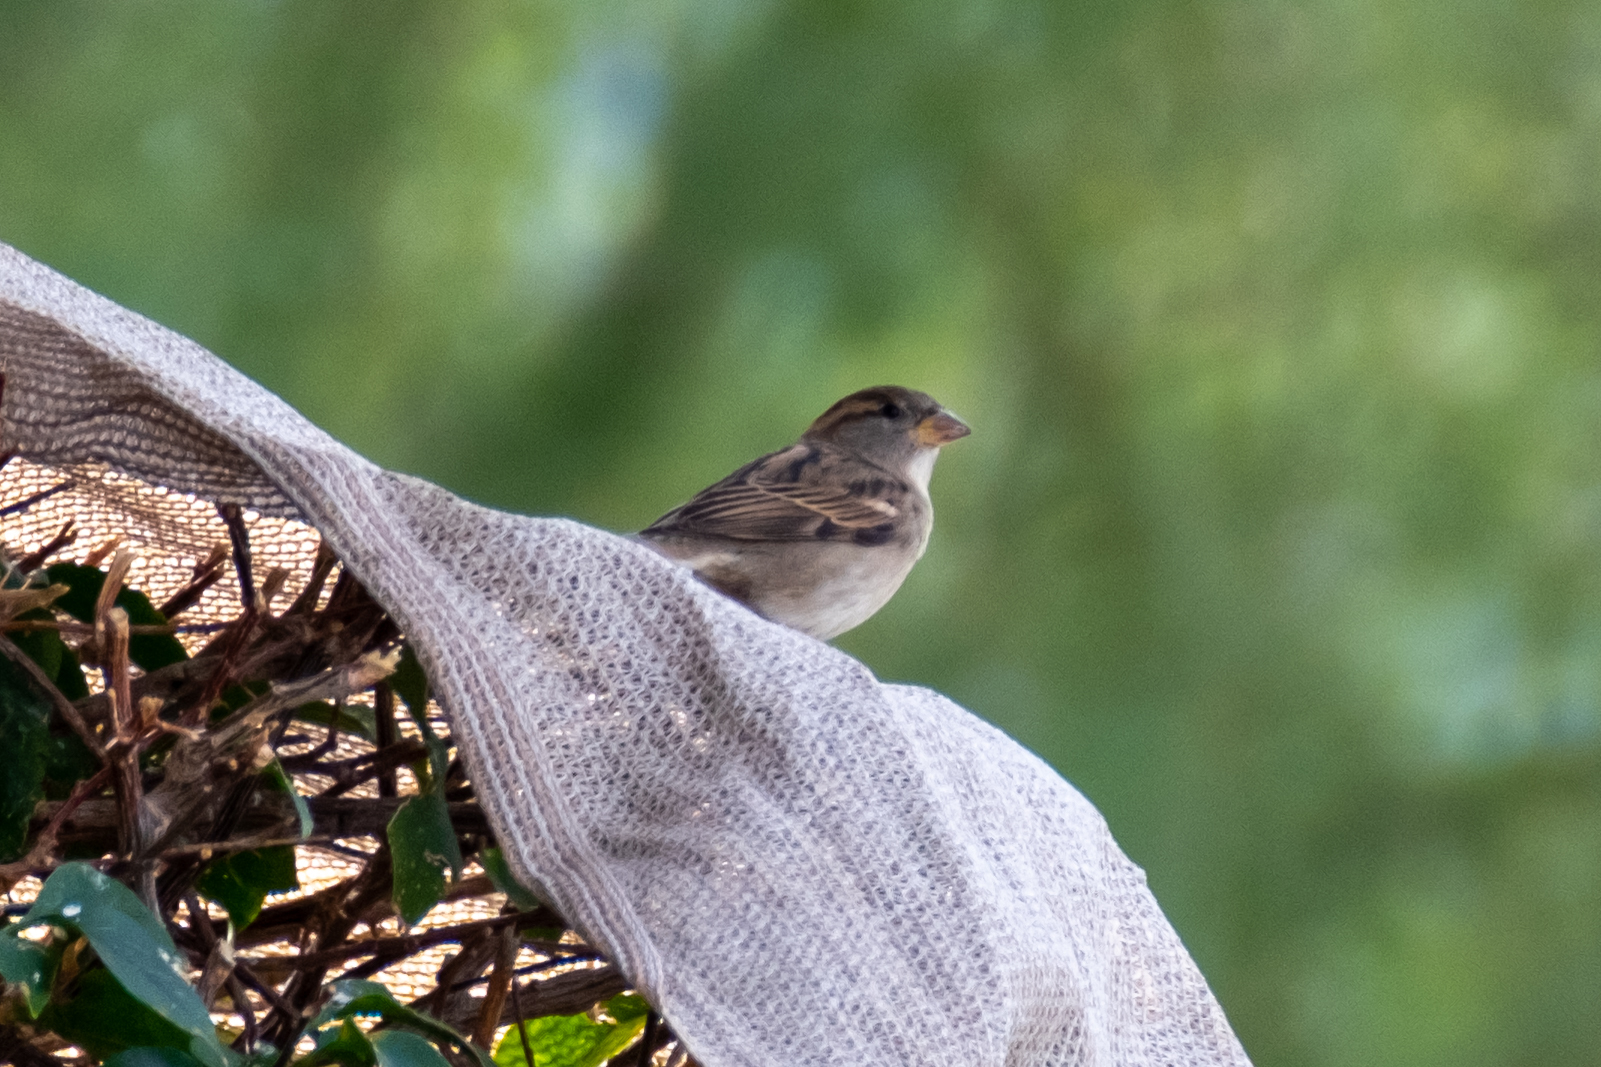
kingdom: Animalia
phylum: Chordata
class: Aves
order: Passeriformes
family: Passeridae
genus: Passer
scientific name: Passer domesticus
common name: House sparrow
